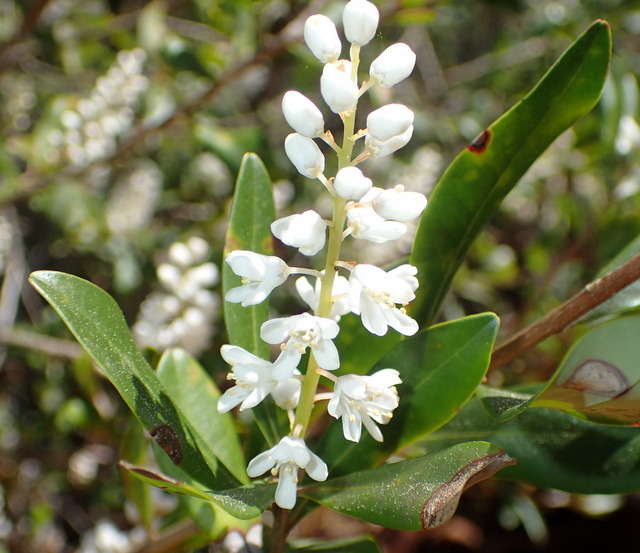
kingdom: Plantae
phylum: Tracheophyta
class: Magnoliopsida
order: Ericales
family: Cyrillaceae
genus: Cliftonia
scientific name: Cliftonia monophylla
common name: Titi
